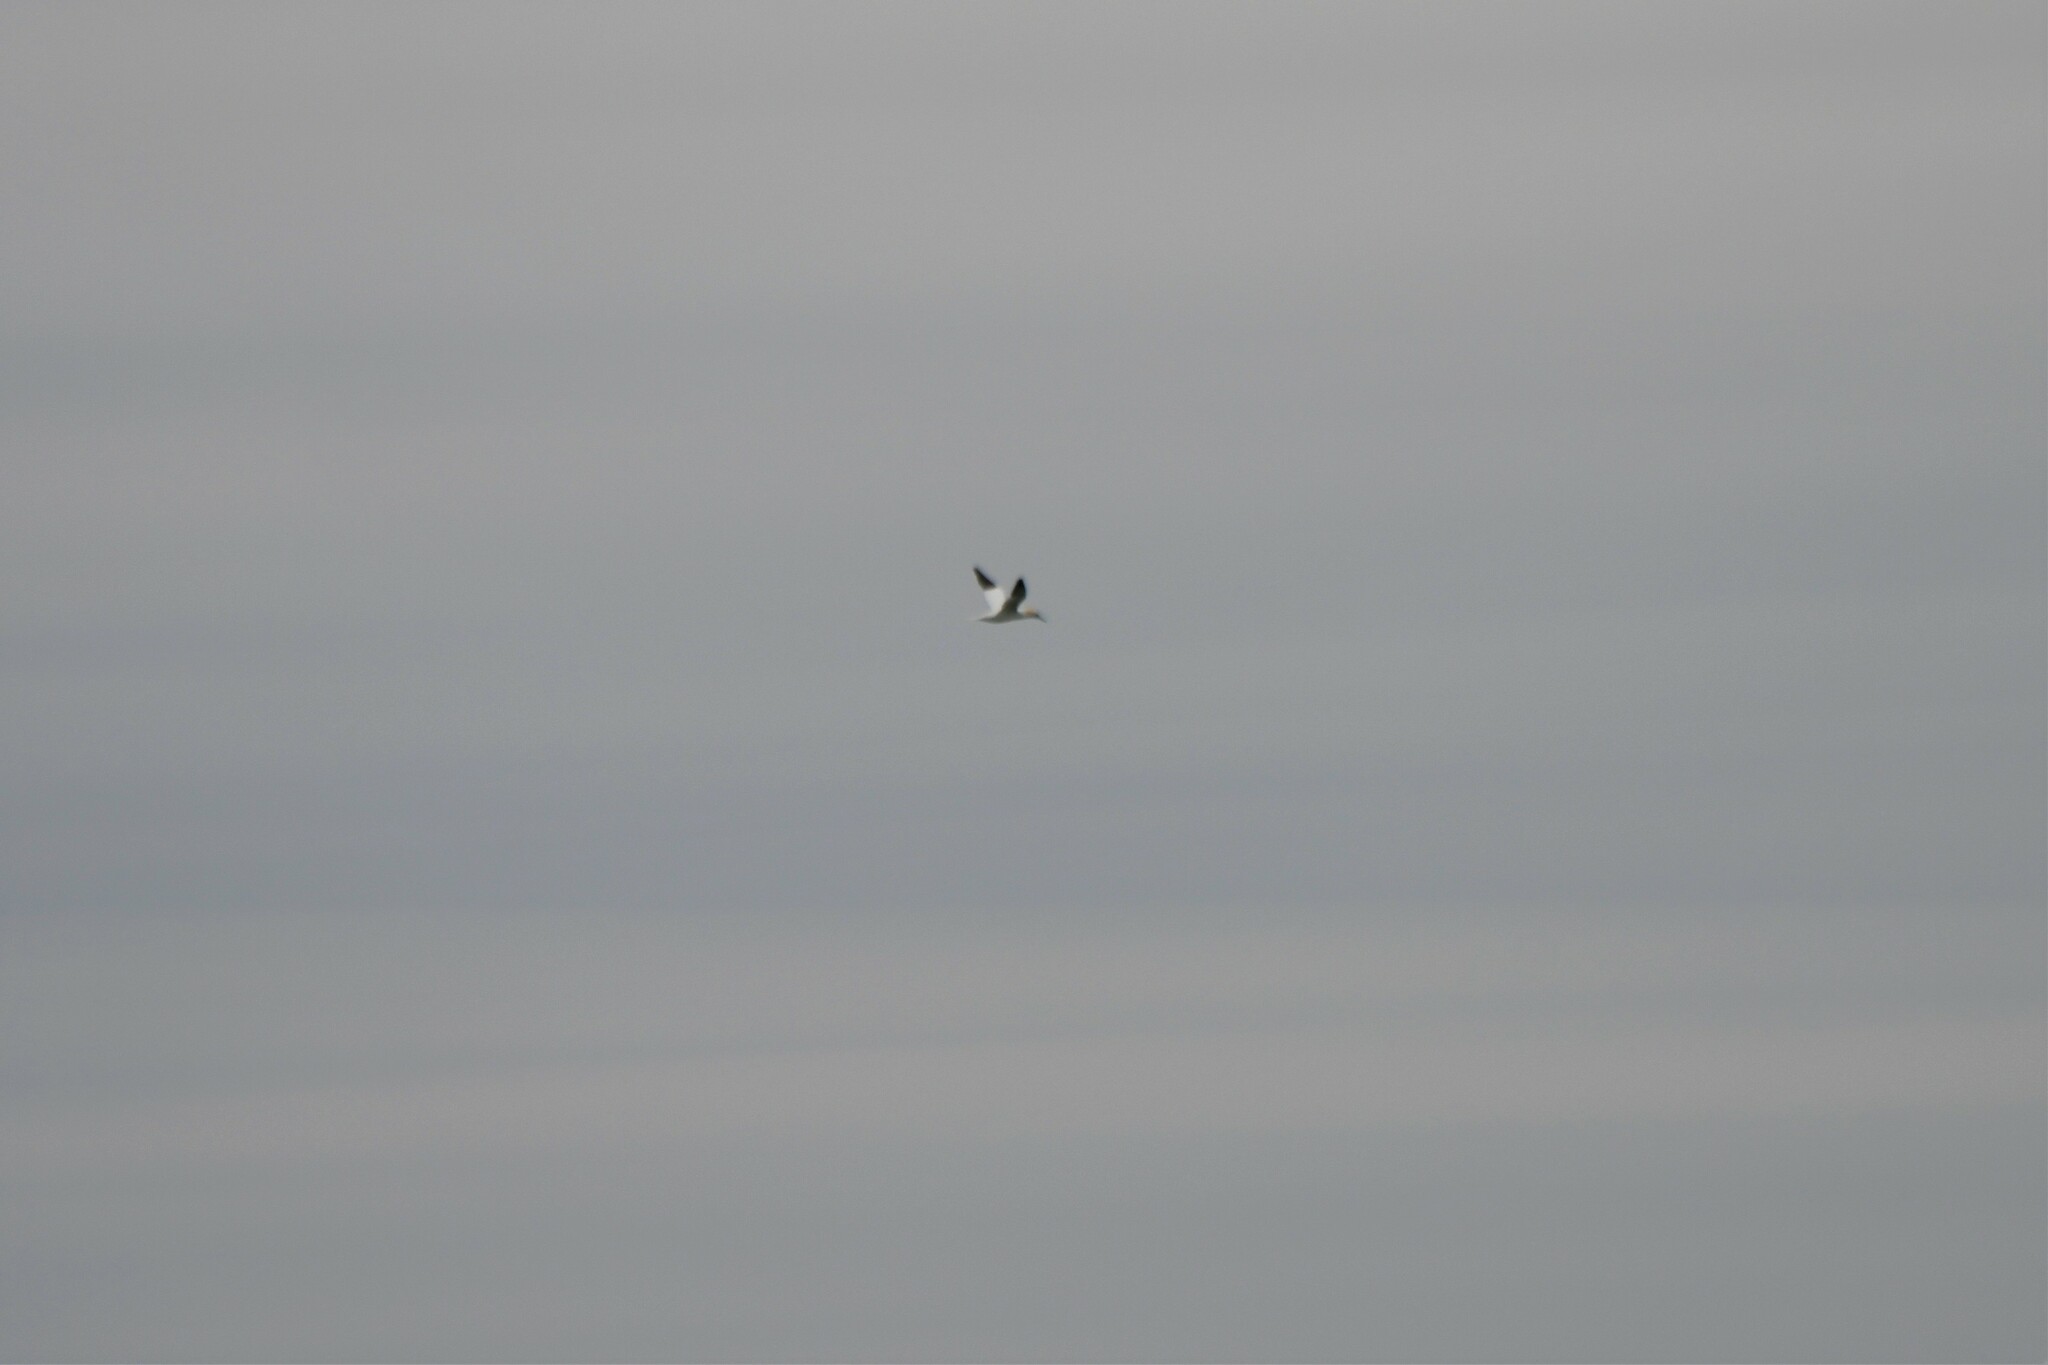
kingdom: Animalia
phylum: Chordata
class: Aves
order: Suliformes
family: Sulidae
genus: Morus
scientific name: Morus bassanus
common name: Northern gannet
